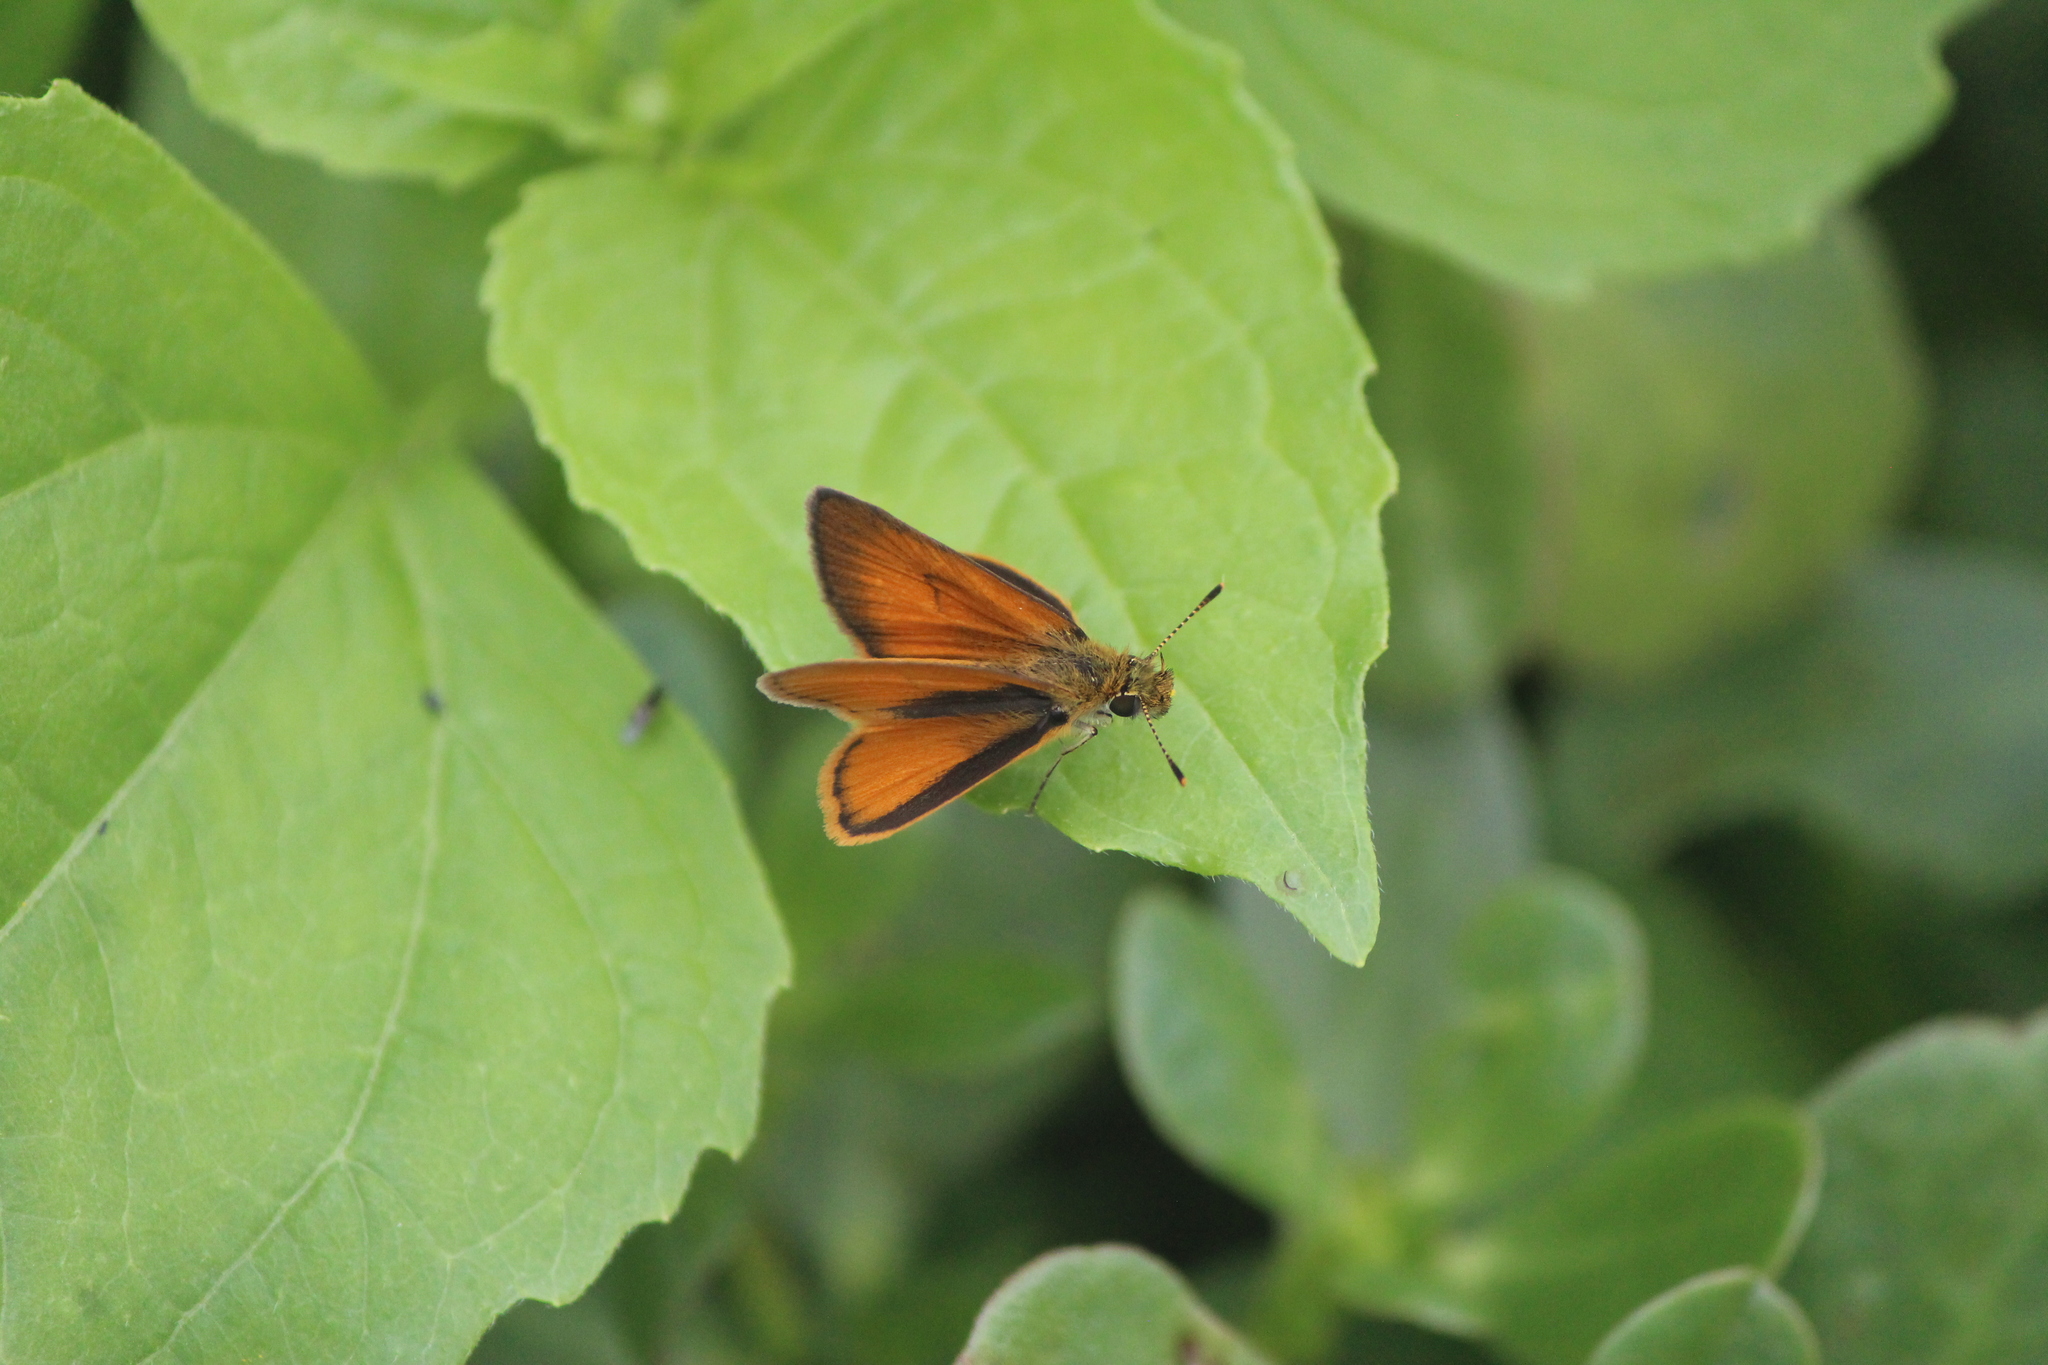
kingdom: Animalia
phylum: Arthropoda
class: Insecta
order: Lepidoptera
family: Hesperiidae
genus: Ancyloxypha
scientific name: Ancyloxypha arene
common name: Tropical least skipper
